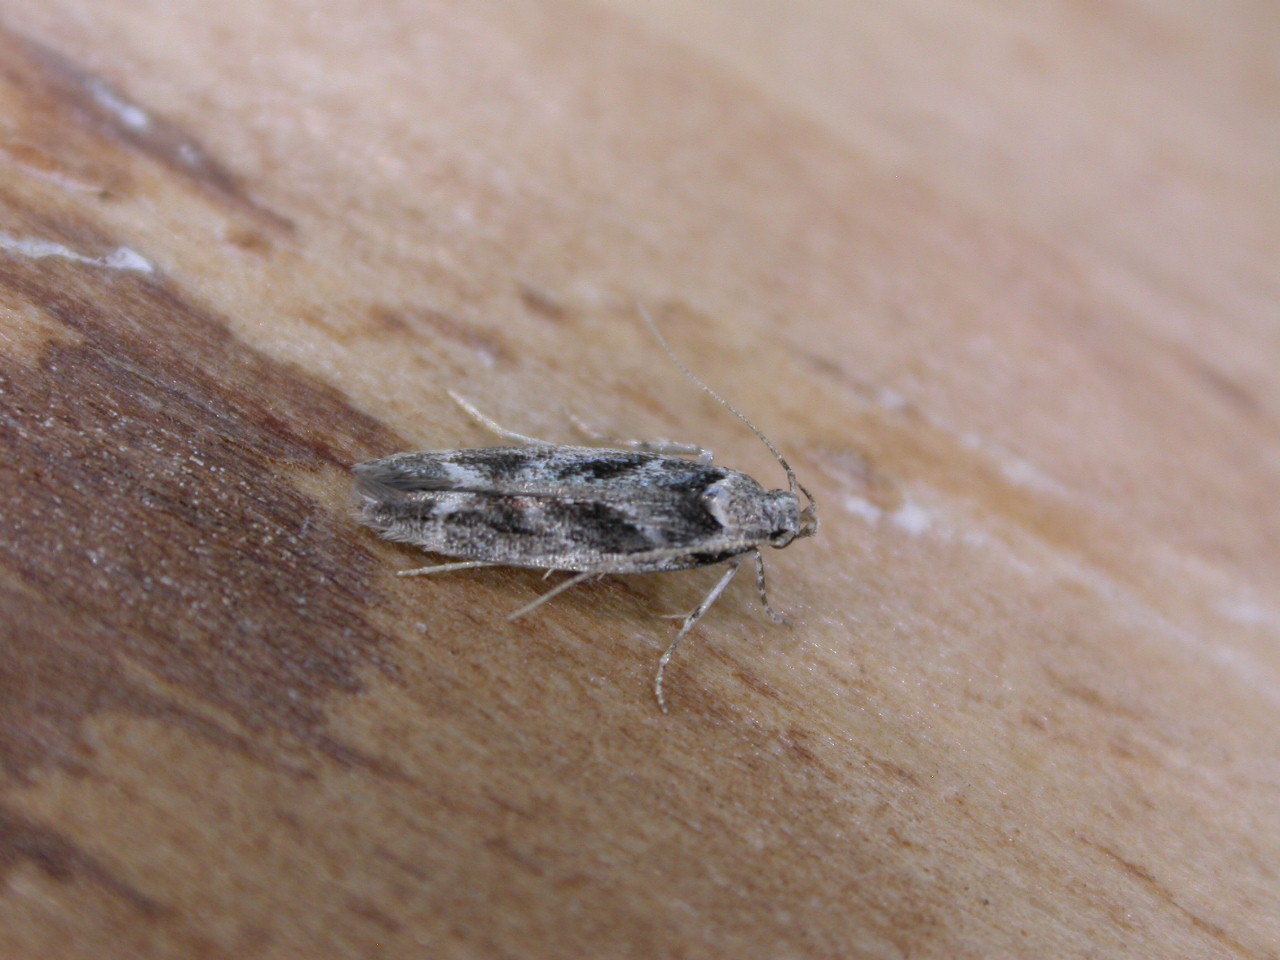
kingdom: Animalia
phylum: Arthropoda
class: Insecta
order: Lepidoptera
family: Gelechiidae
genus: Caryocolum
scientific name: Caryocolum fischerella
